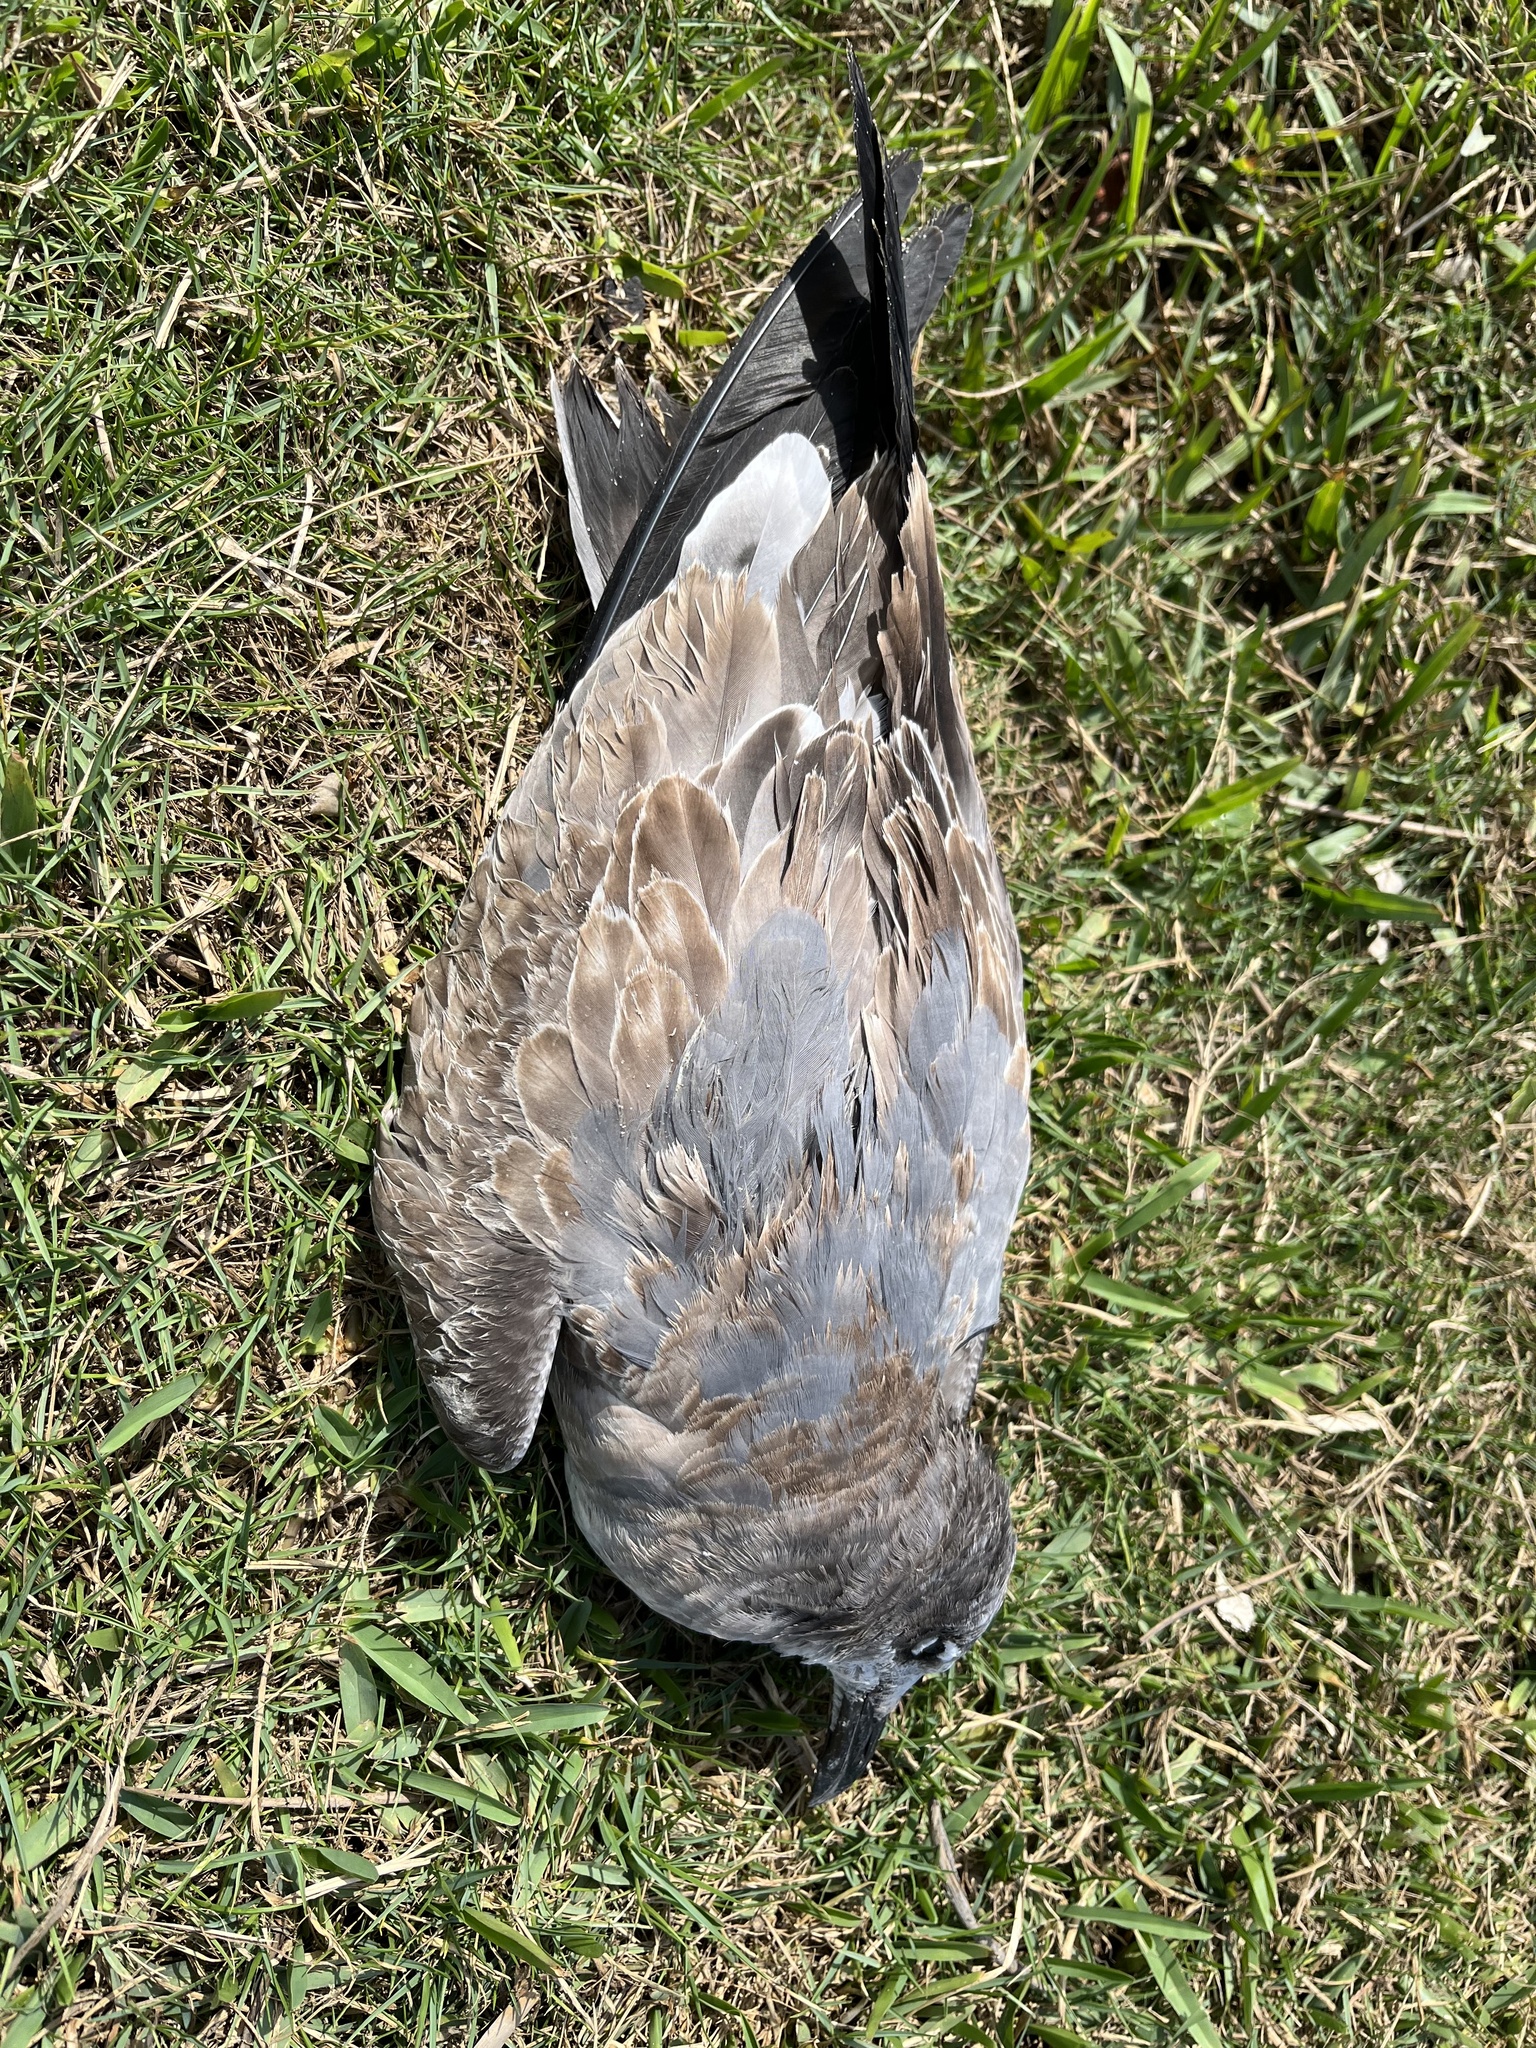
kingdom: Animalia
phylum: Chordata
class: Aves
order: Charadriiformes
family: Laridae
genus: Leucophaeus
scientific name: Leucophaeus atricilla
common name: Laughing gull
